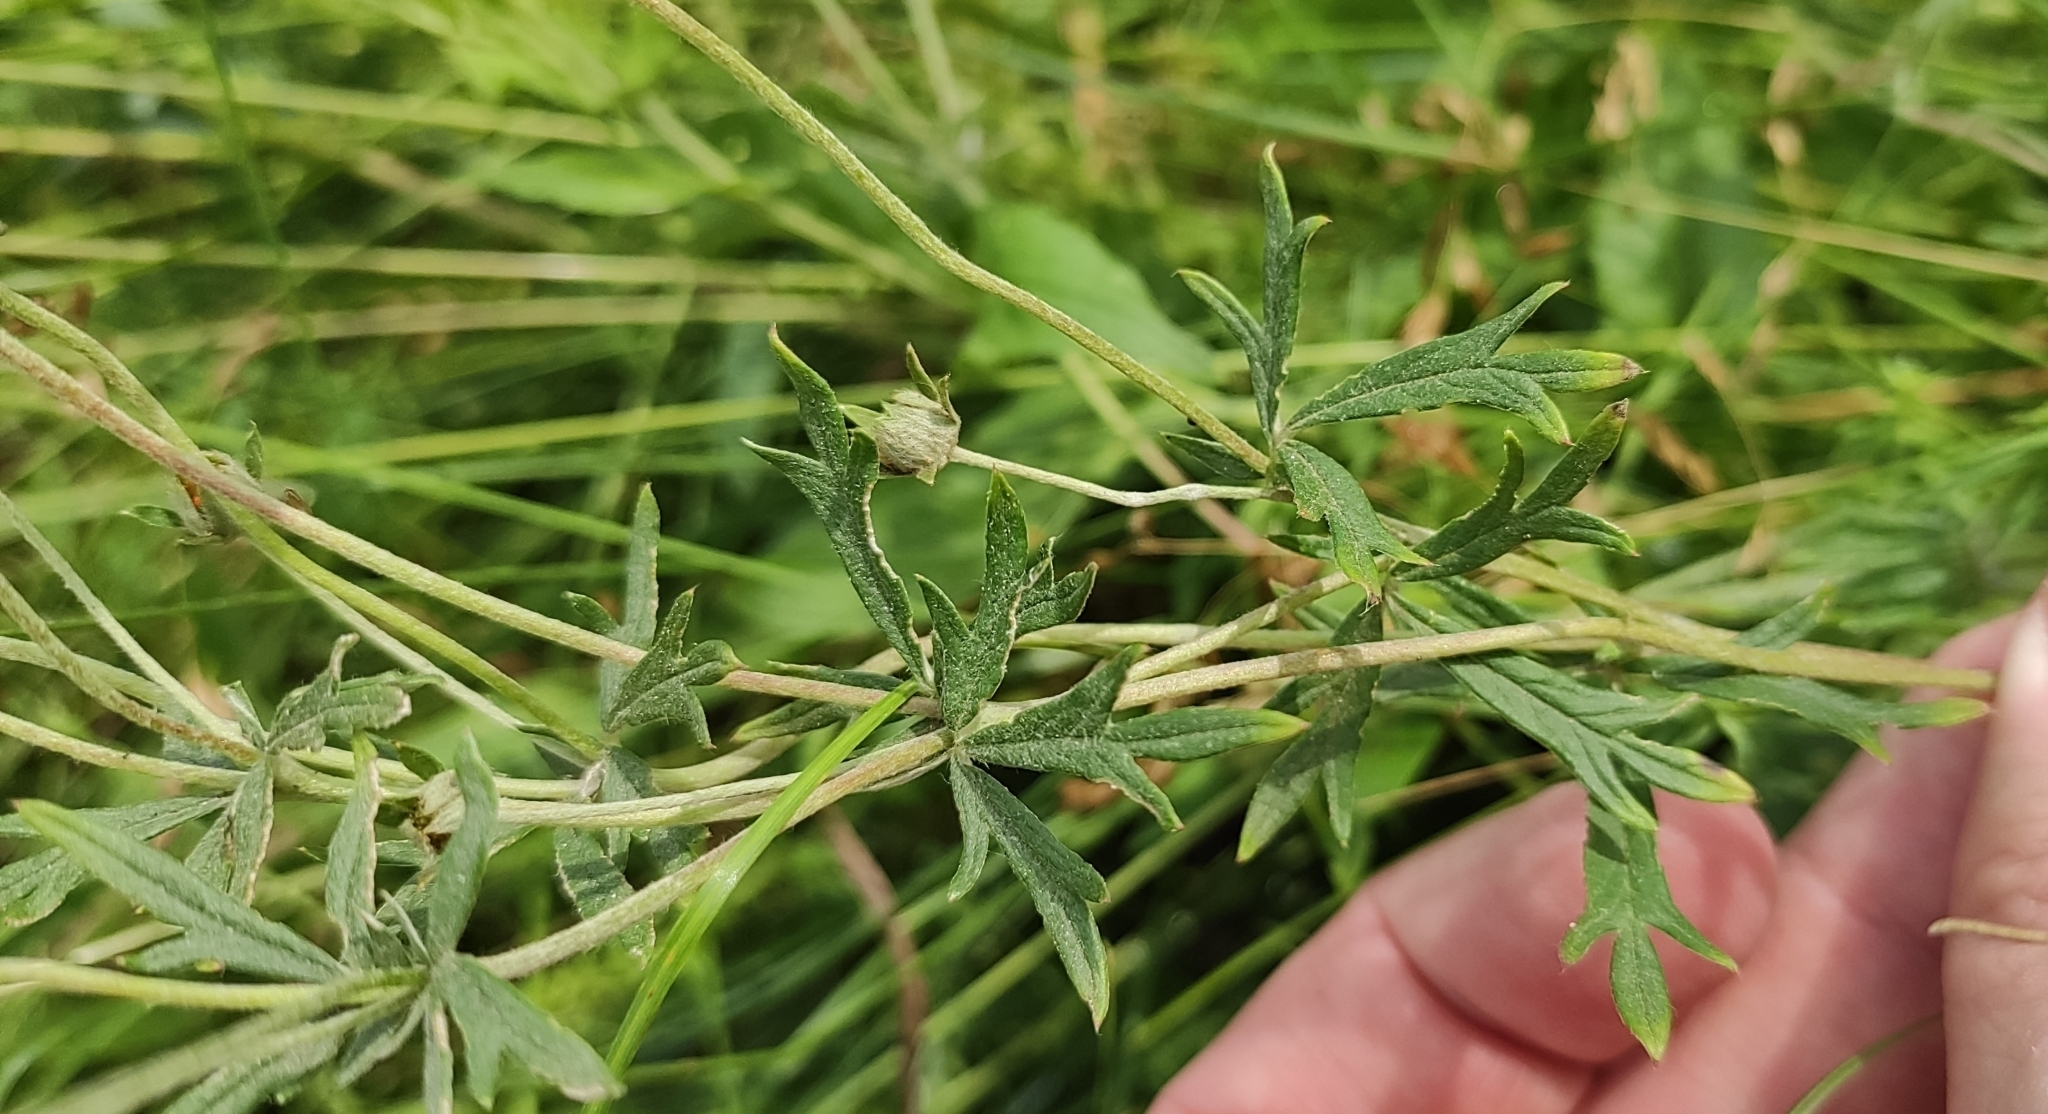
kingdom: Plantae
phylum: Tracheophyta
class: Magnoliopsida
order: Rosales
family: Rosaceae
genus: Potentilla
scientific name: Potentilla argentea
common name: Hoary cinquefoil
